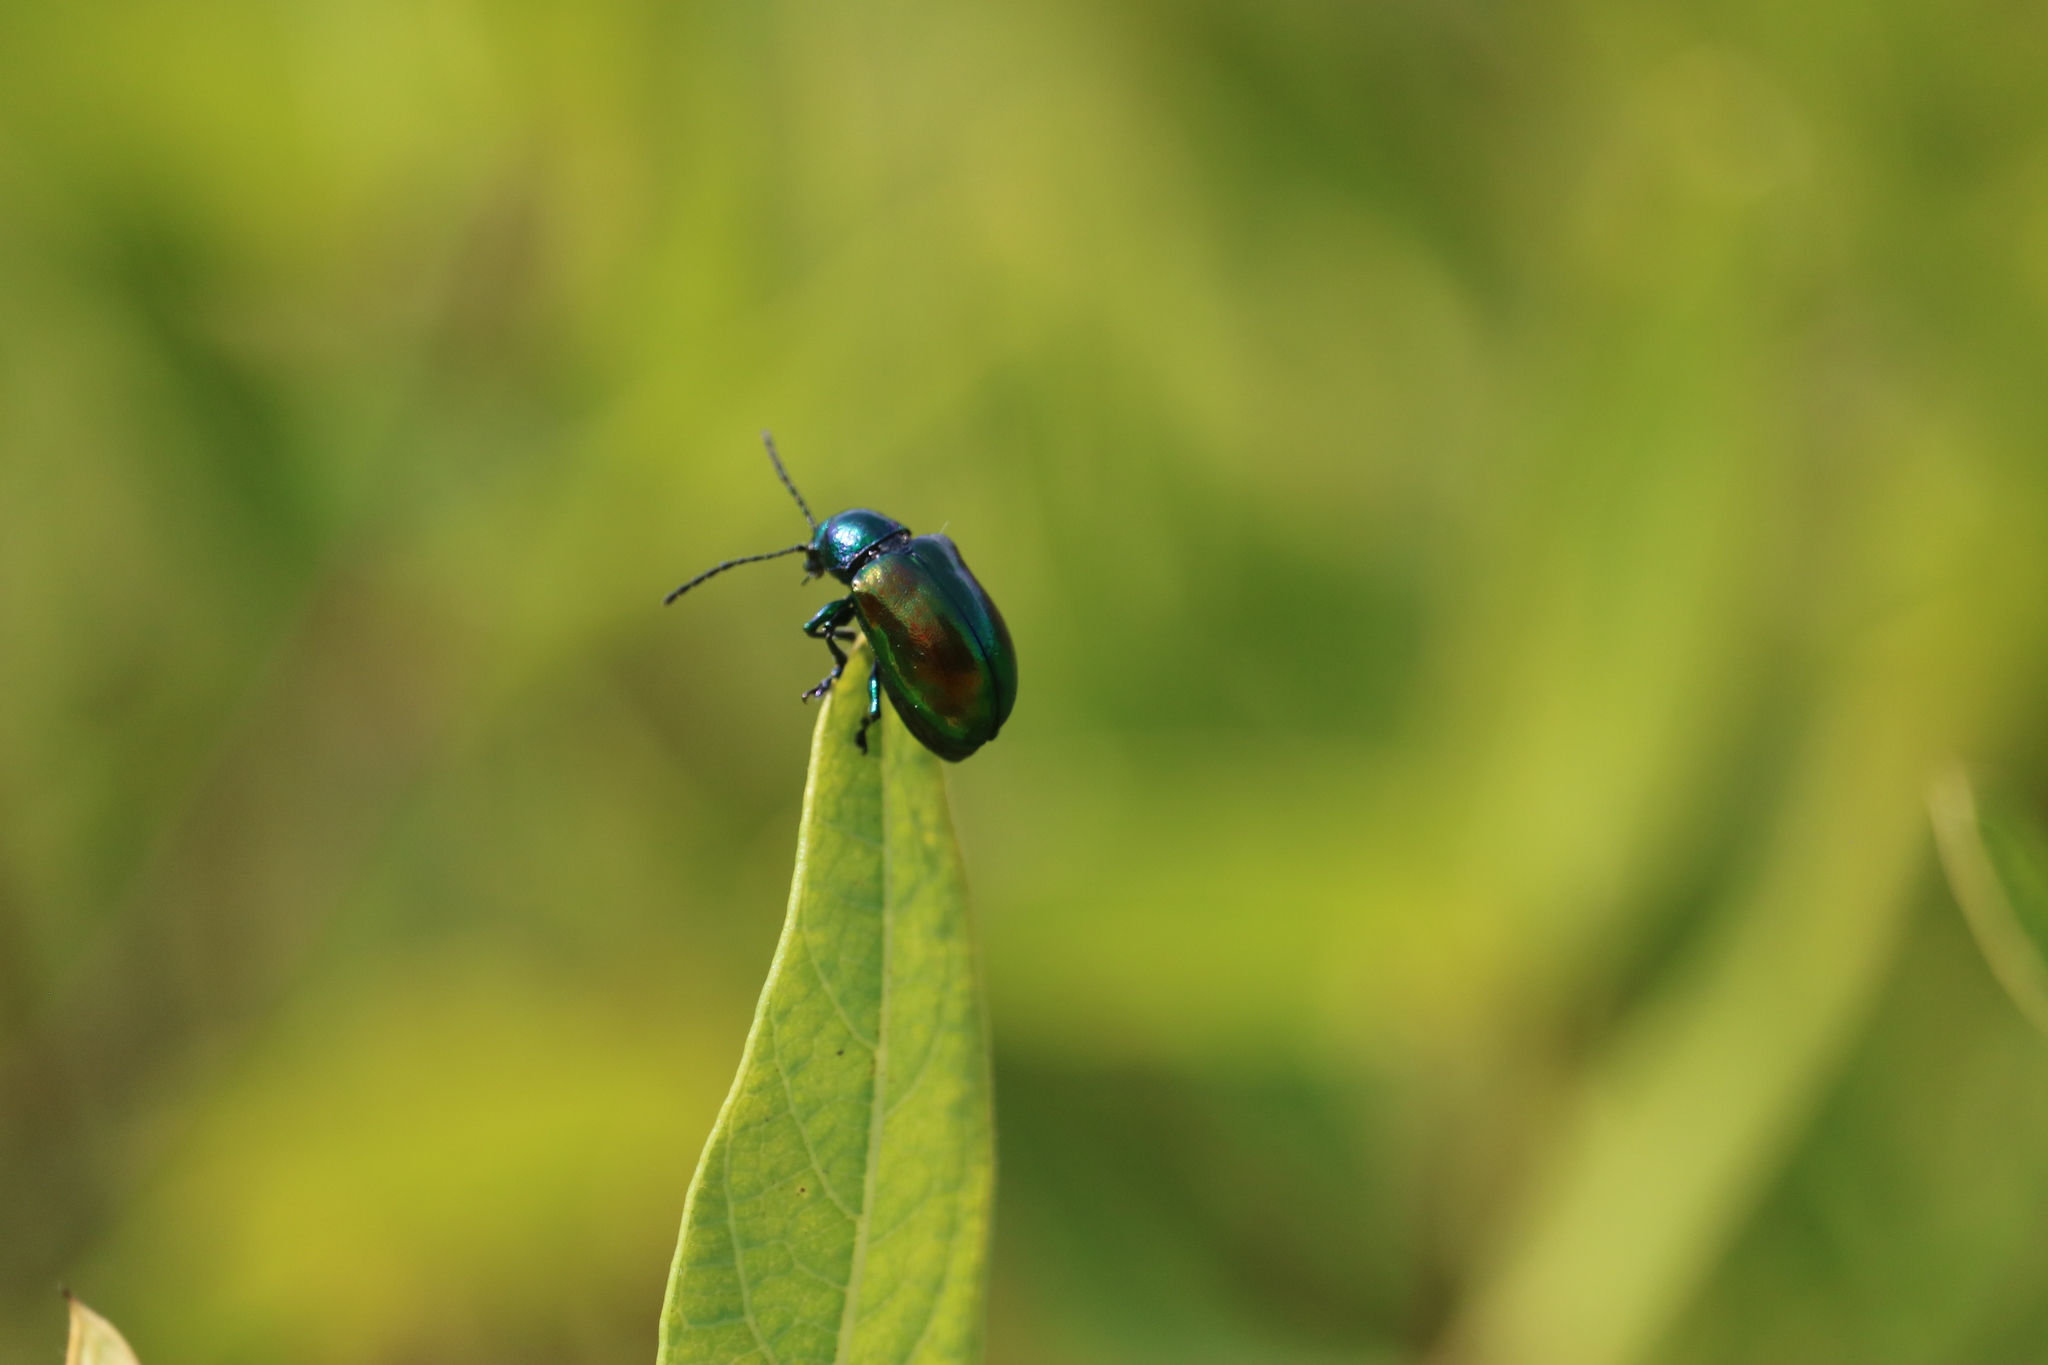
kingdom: Animalia
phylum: Arthropoda
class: Insecta
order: Coleoptera
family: Chrysomelidae
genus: Chrysochus
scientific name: Chrysochus auratus
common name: Dogbane leaf beetle
